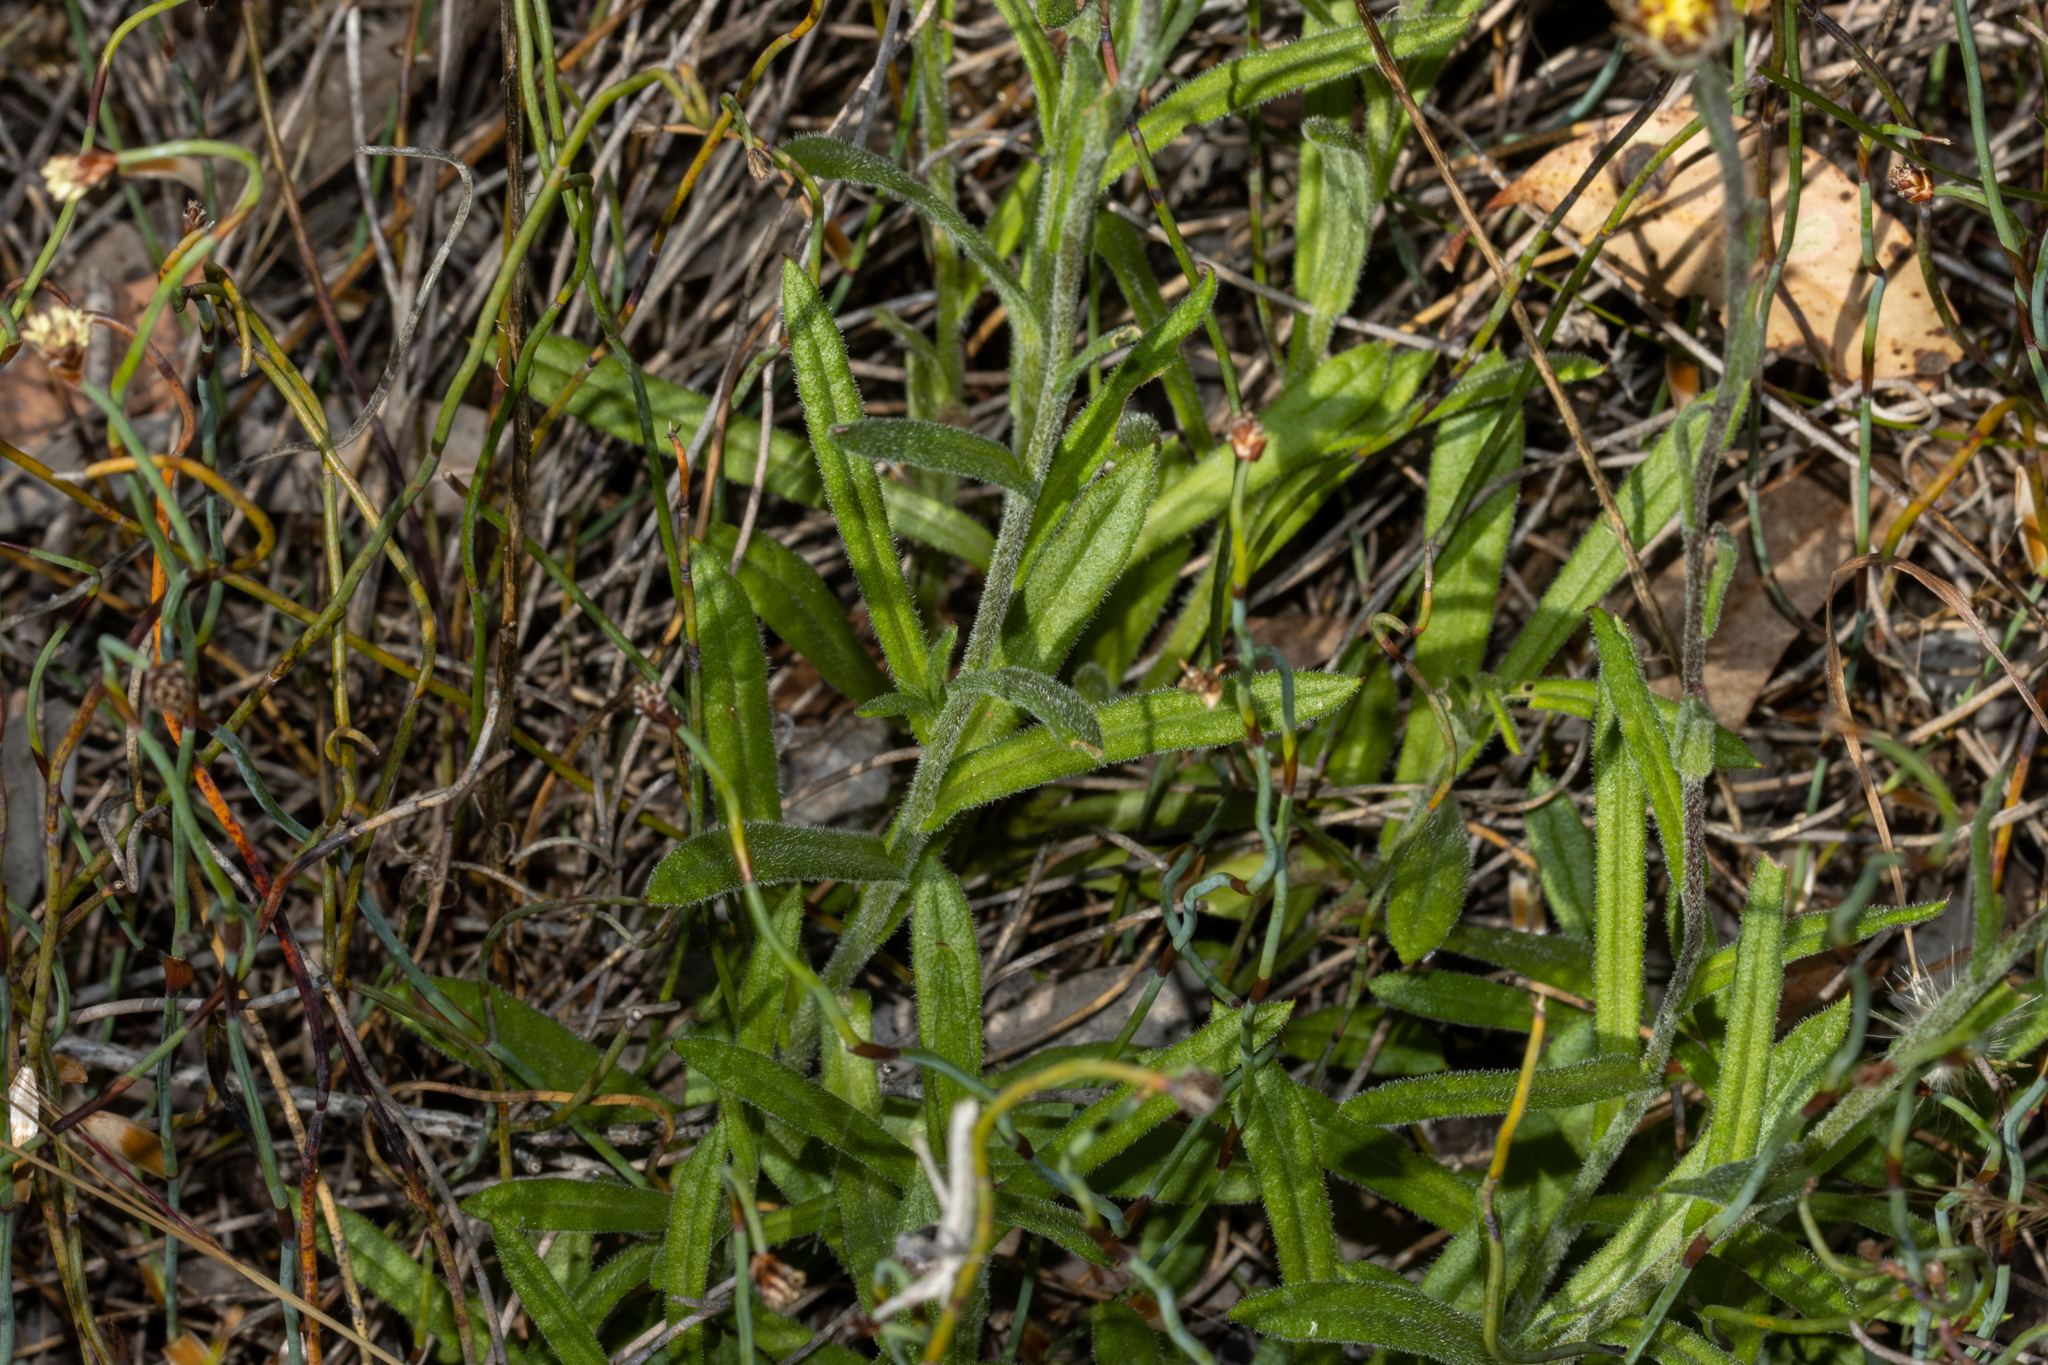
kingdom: Plantae
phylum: Tracheophyta
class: Magnoliopsida
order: Asterales
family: Asteraceae
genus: Coronidium
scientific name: Coronidium scorpioides
